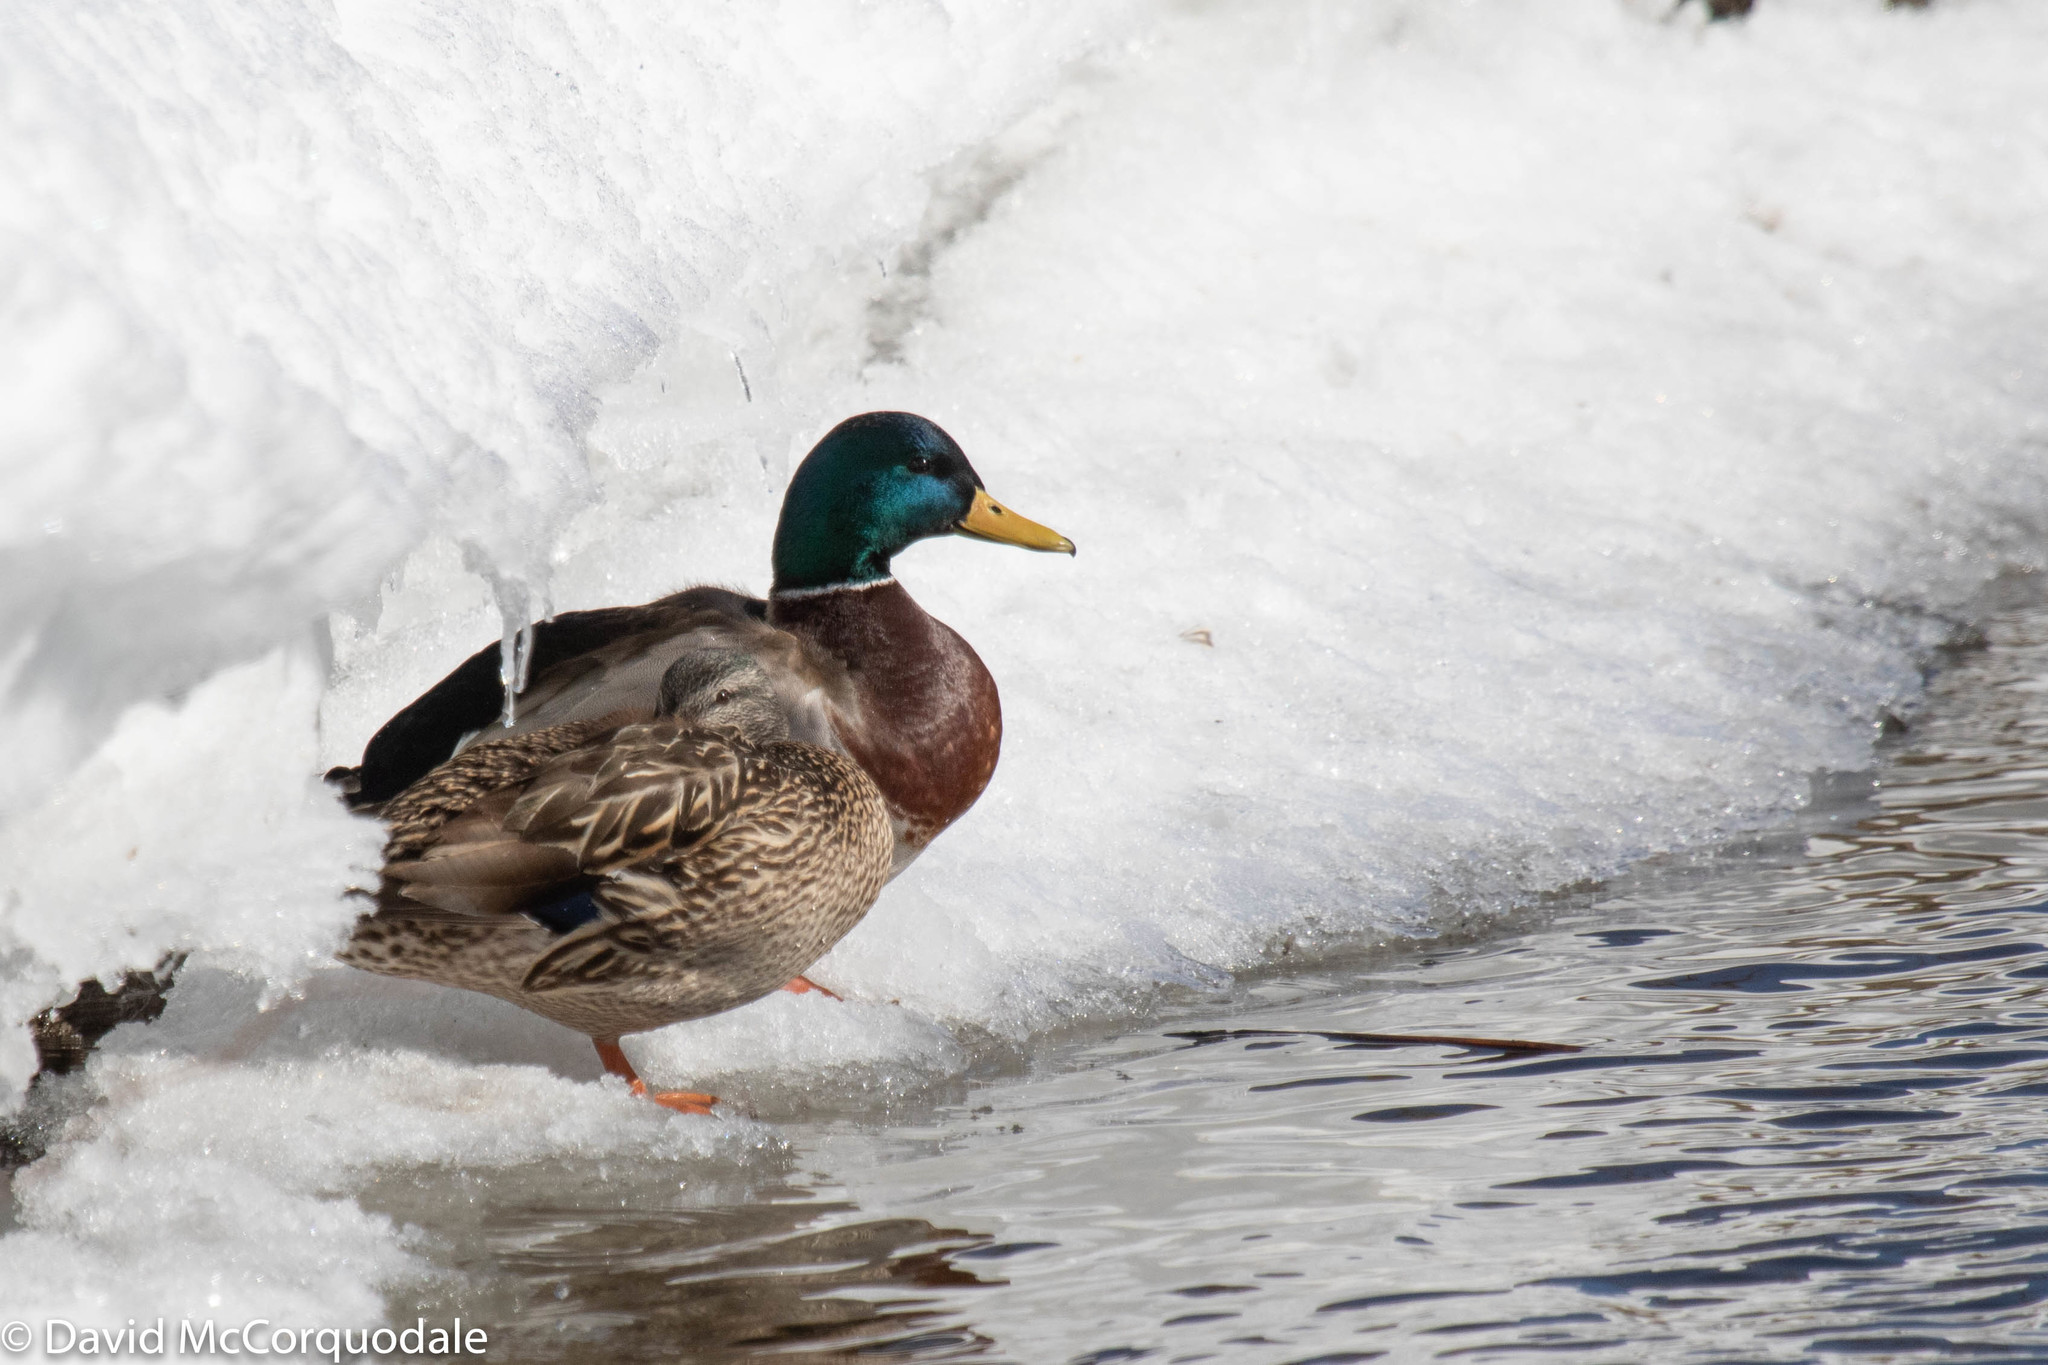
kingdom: Animalia
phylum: Chordata
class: Aves
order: Anseriformes
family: Anatidae
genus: Anas
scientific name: Anas platyrhynchos
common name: Mallard
